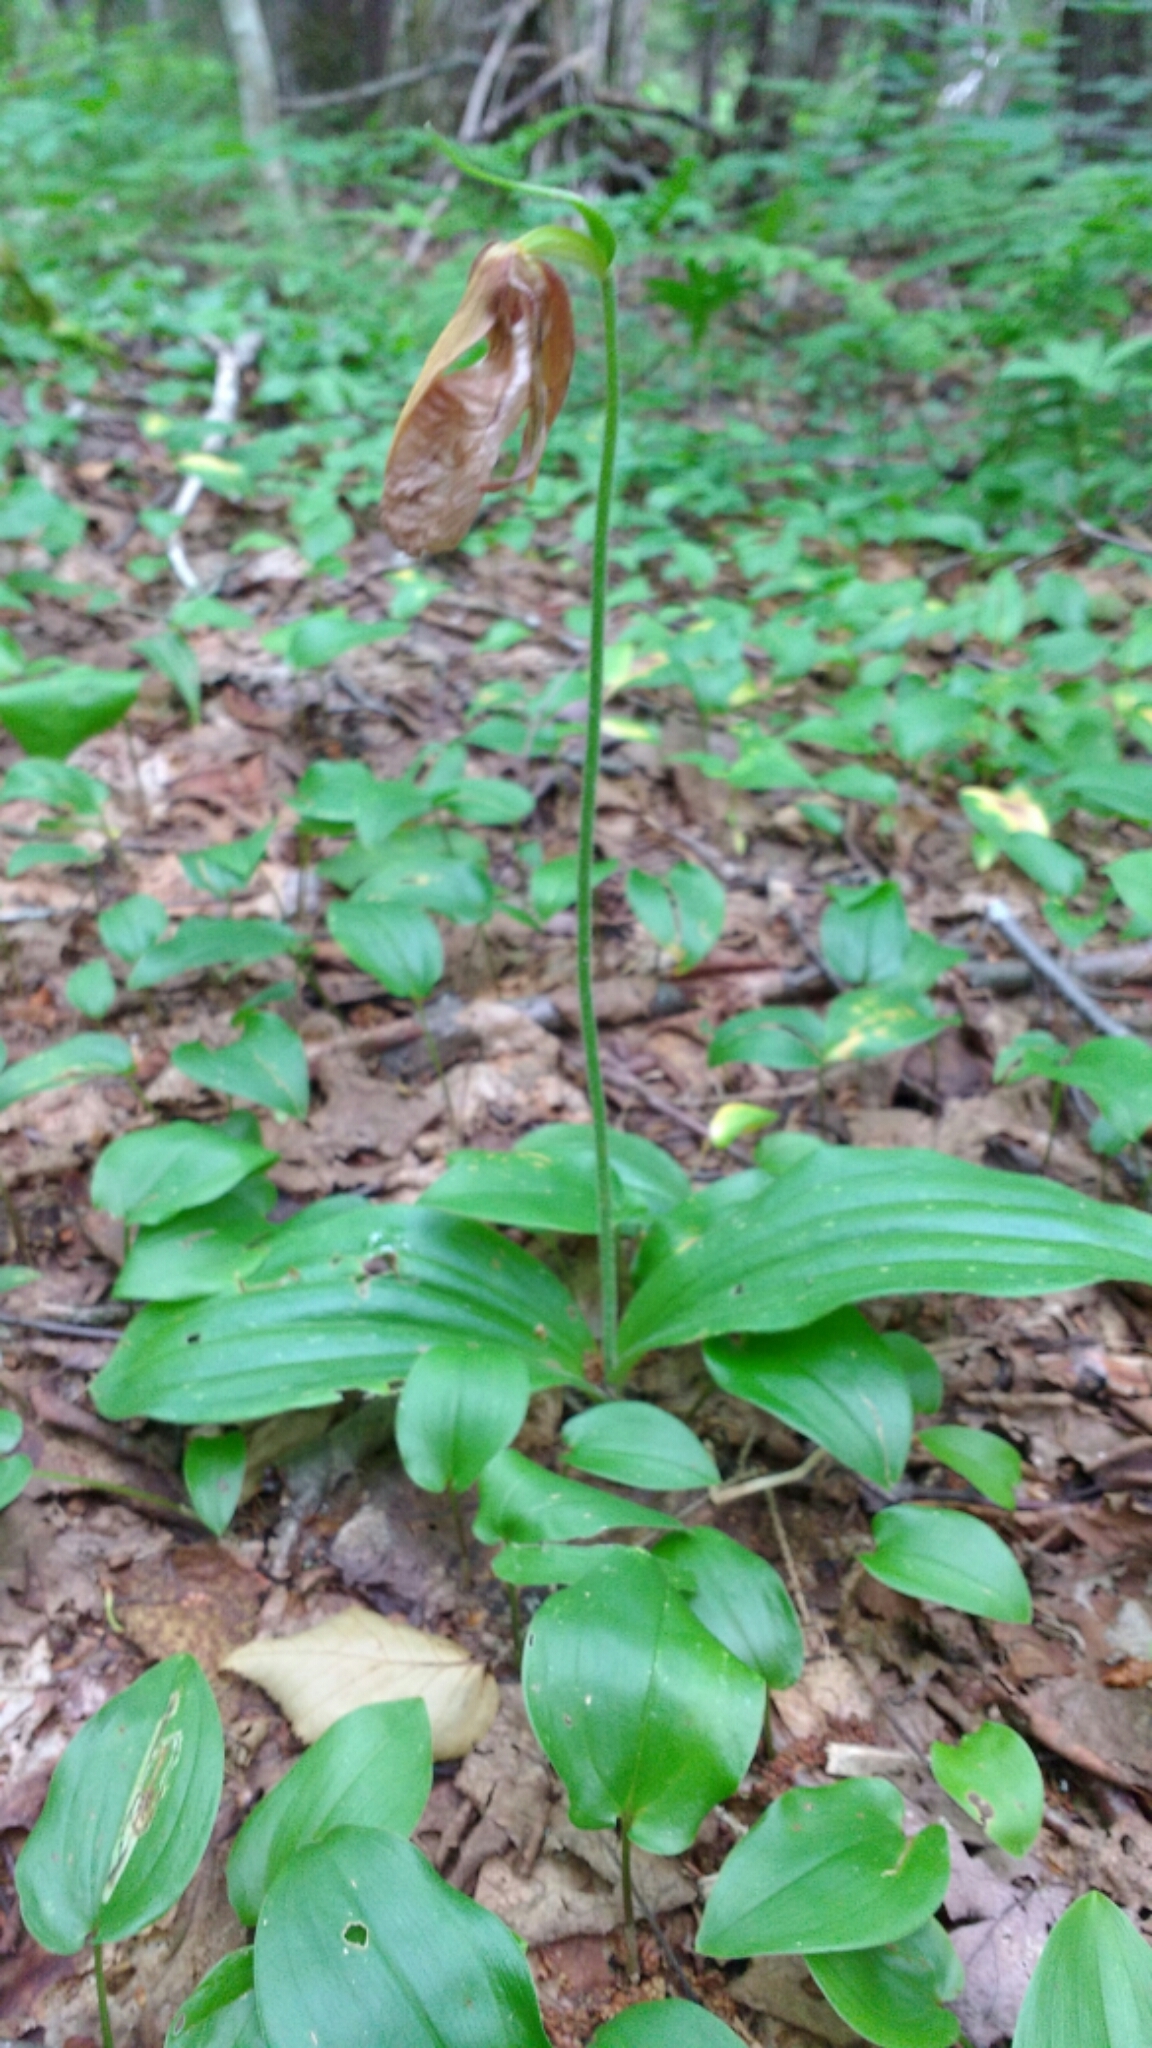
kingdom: Plantae
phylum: Tracheophyta
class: Liliopsida
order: Asparagales
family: Orchidaceae
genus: Cypripedium
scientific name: Cypripedium acaule
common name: Pink lady's-slipper
